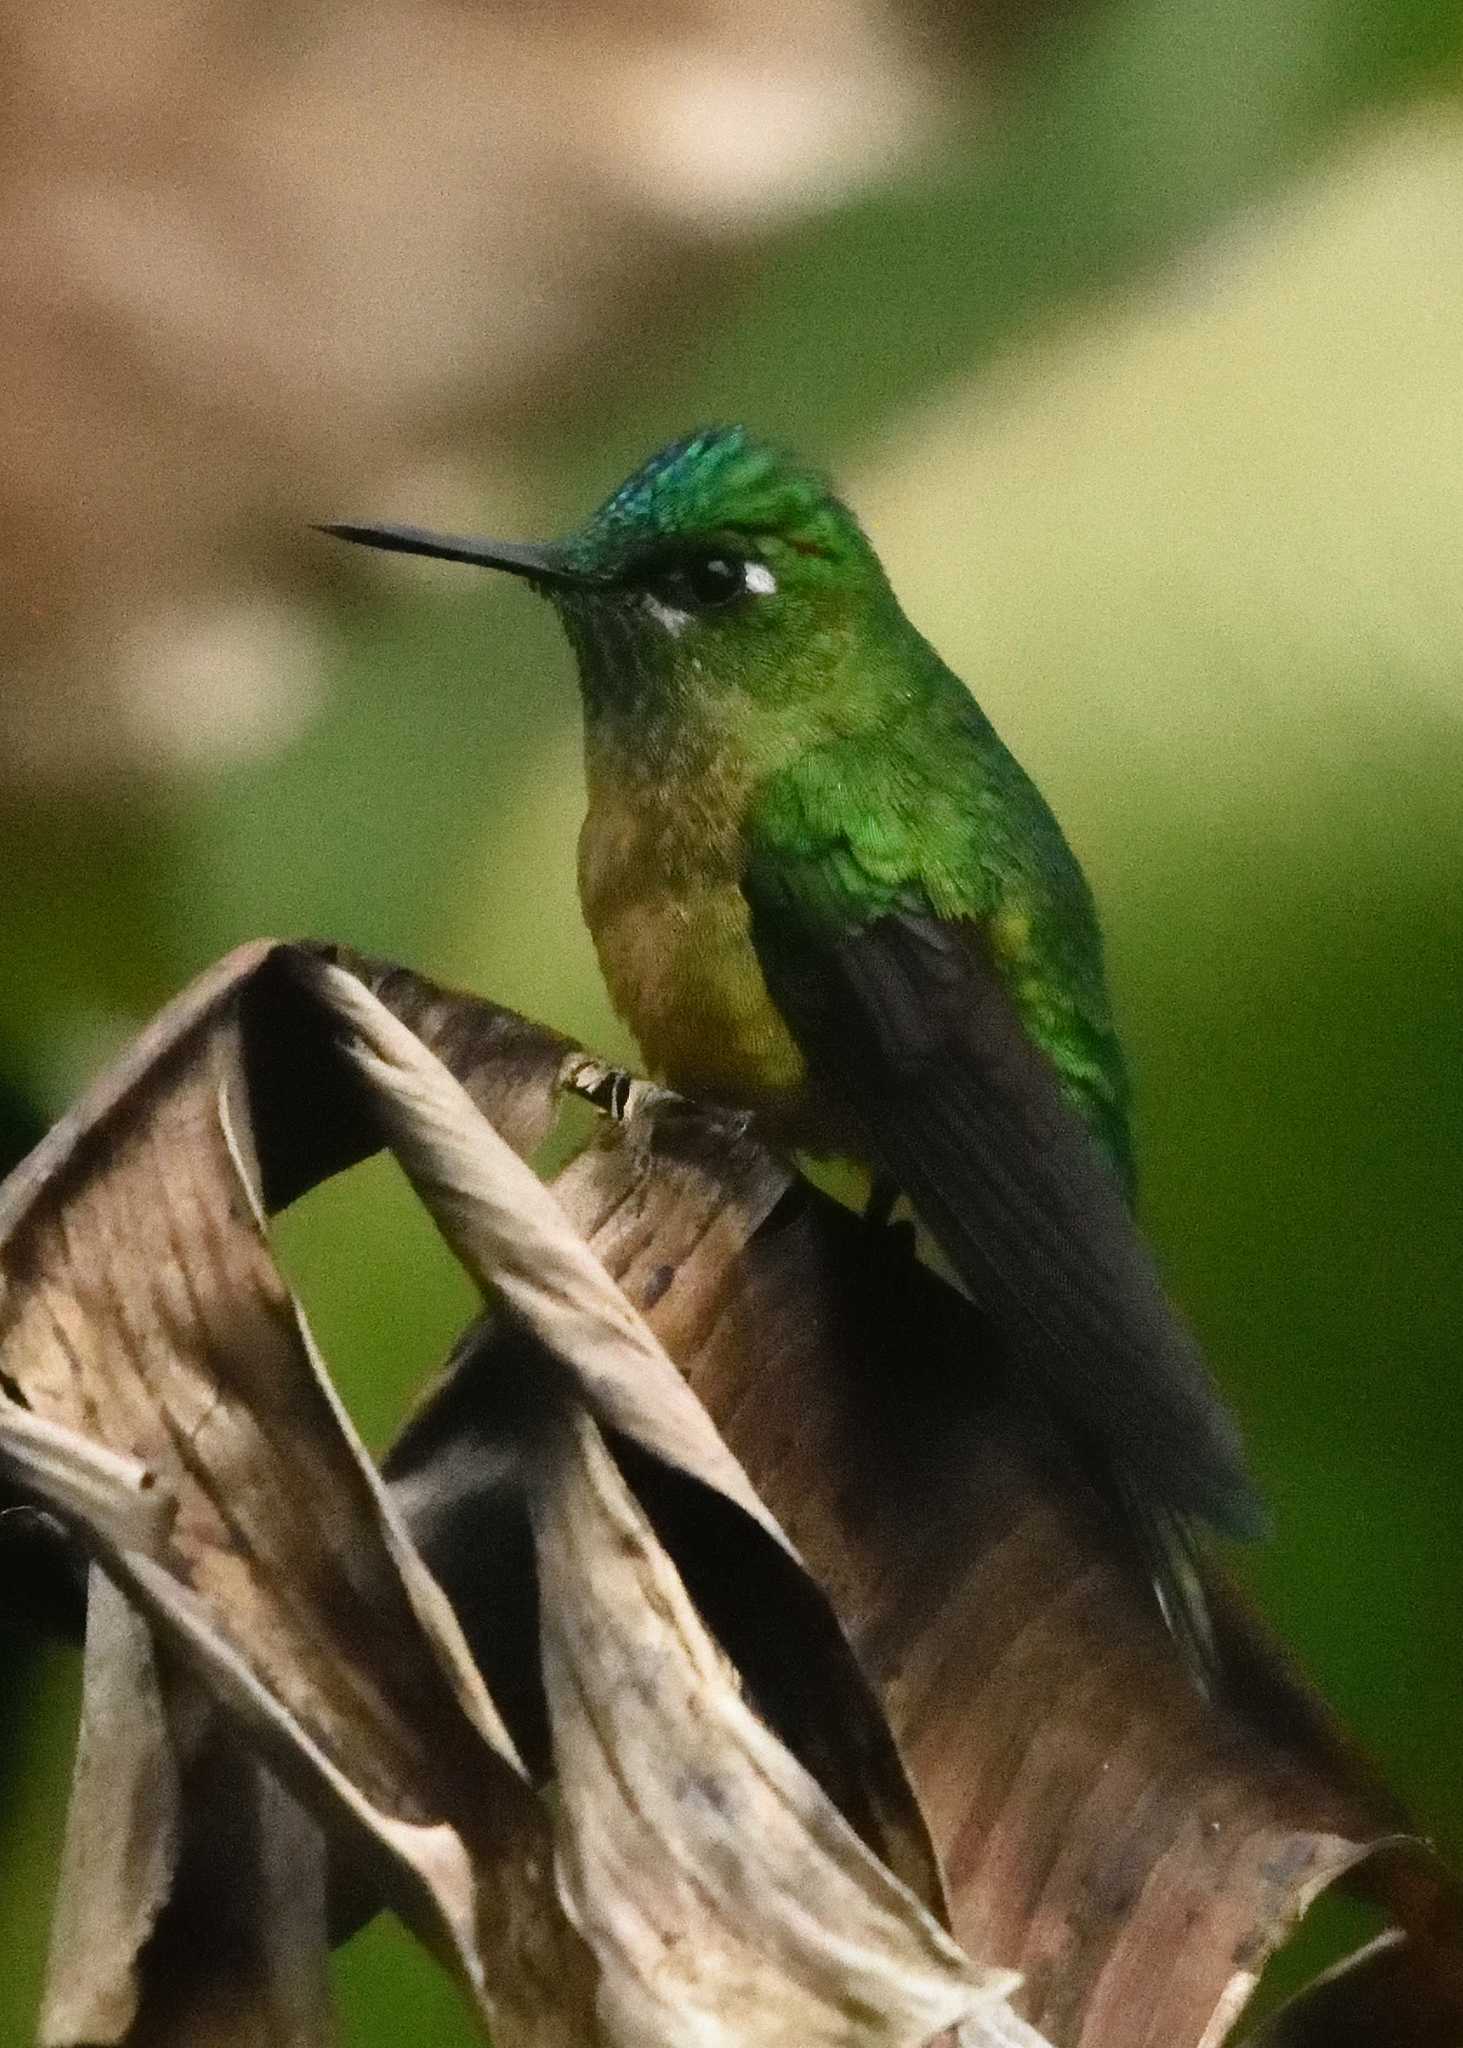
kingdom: Animalia
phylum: Chordata
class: Aves
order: Apodiformes
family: Trochilidae
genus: Aglaiocercus
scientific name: Aglaiocercus kingii
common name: Long-tailed sylph
